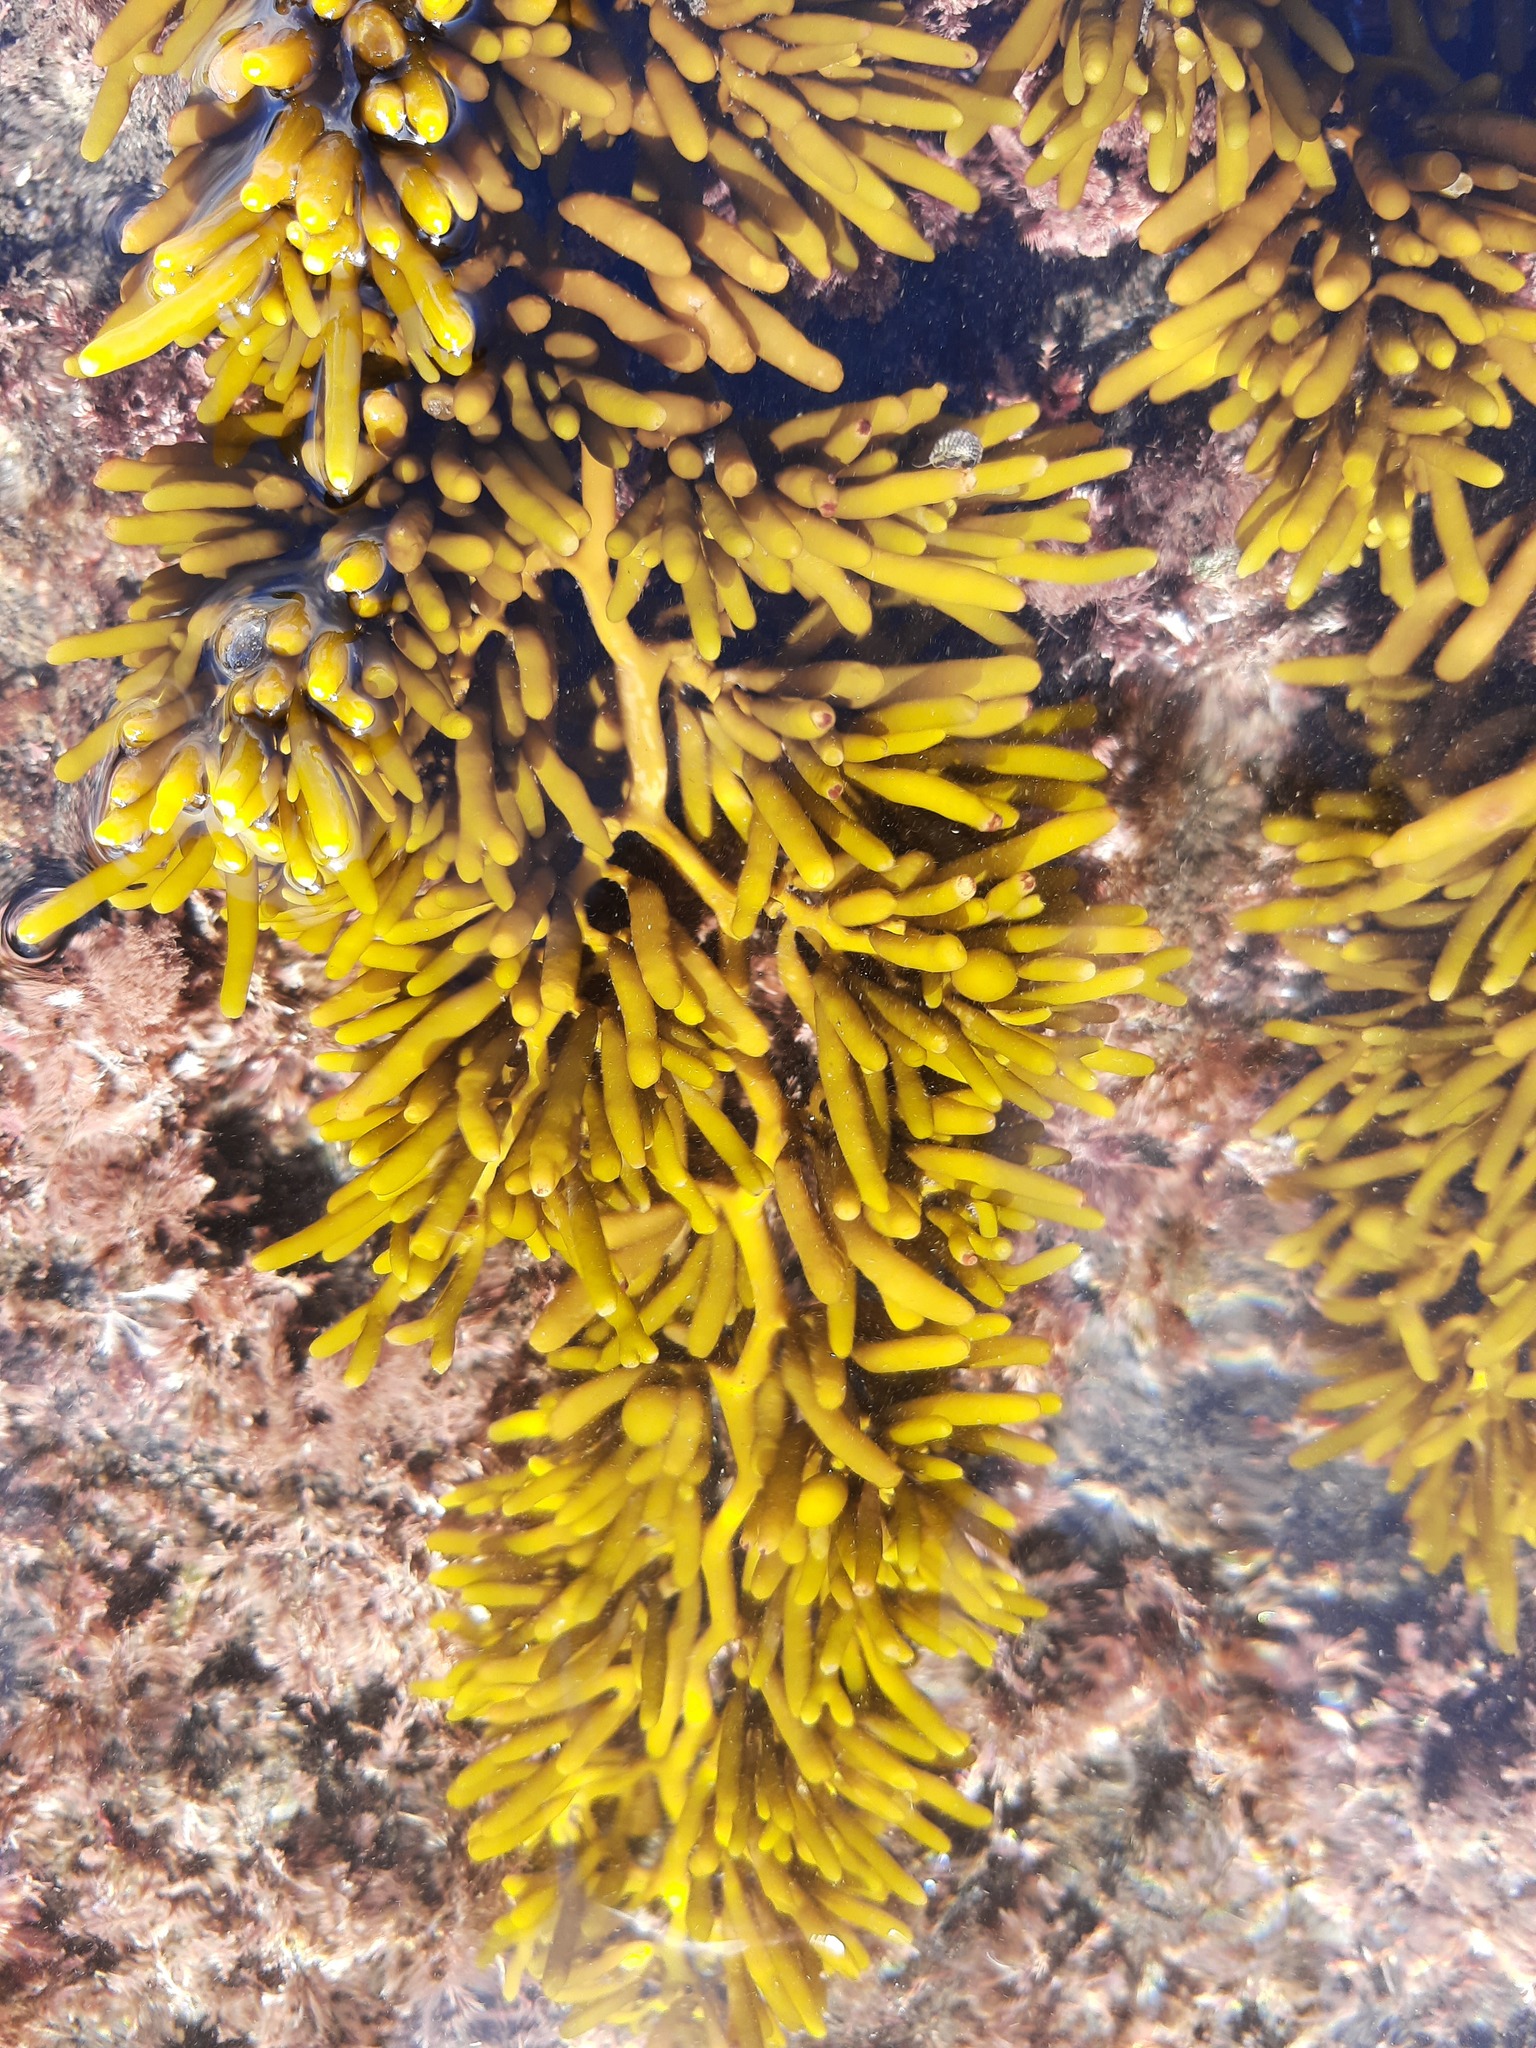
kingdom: Chromista
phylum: Ochrophyta
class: Phaeophyceae
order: Fucales
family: Sargassaceae
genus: Cystophora
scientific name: Cystophora torulosa
